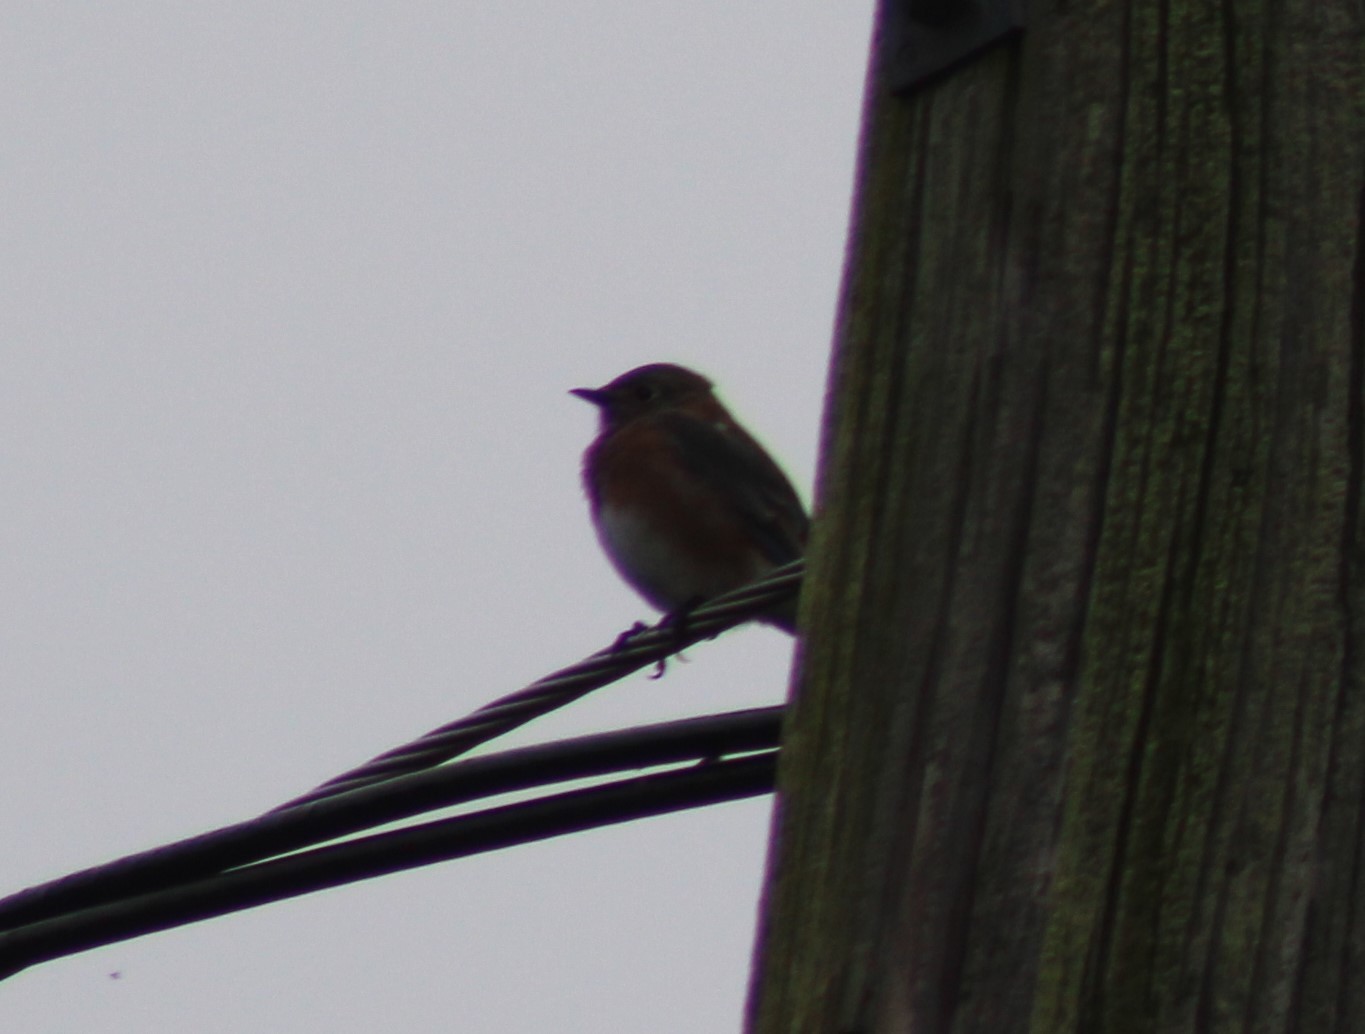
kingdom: Animalia
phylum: Chordata
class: Aves
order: Passeriformes
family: Turdidae
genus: Sialia
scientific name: Sialia sialis
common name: Eastern bluebird
